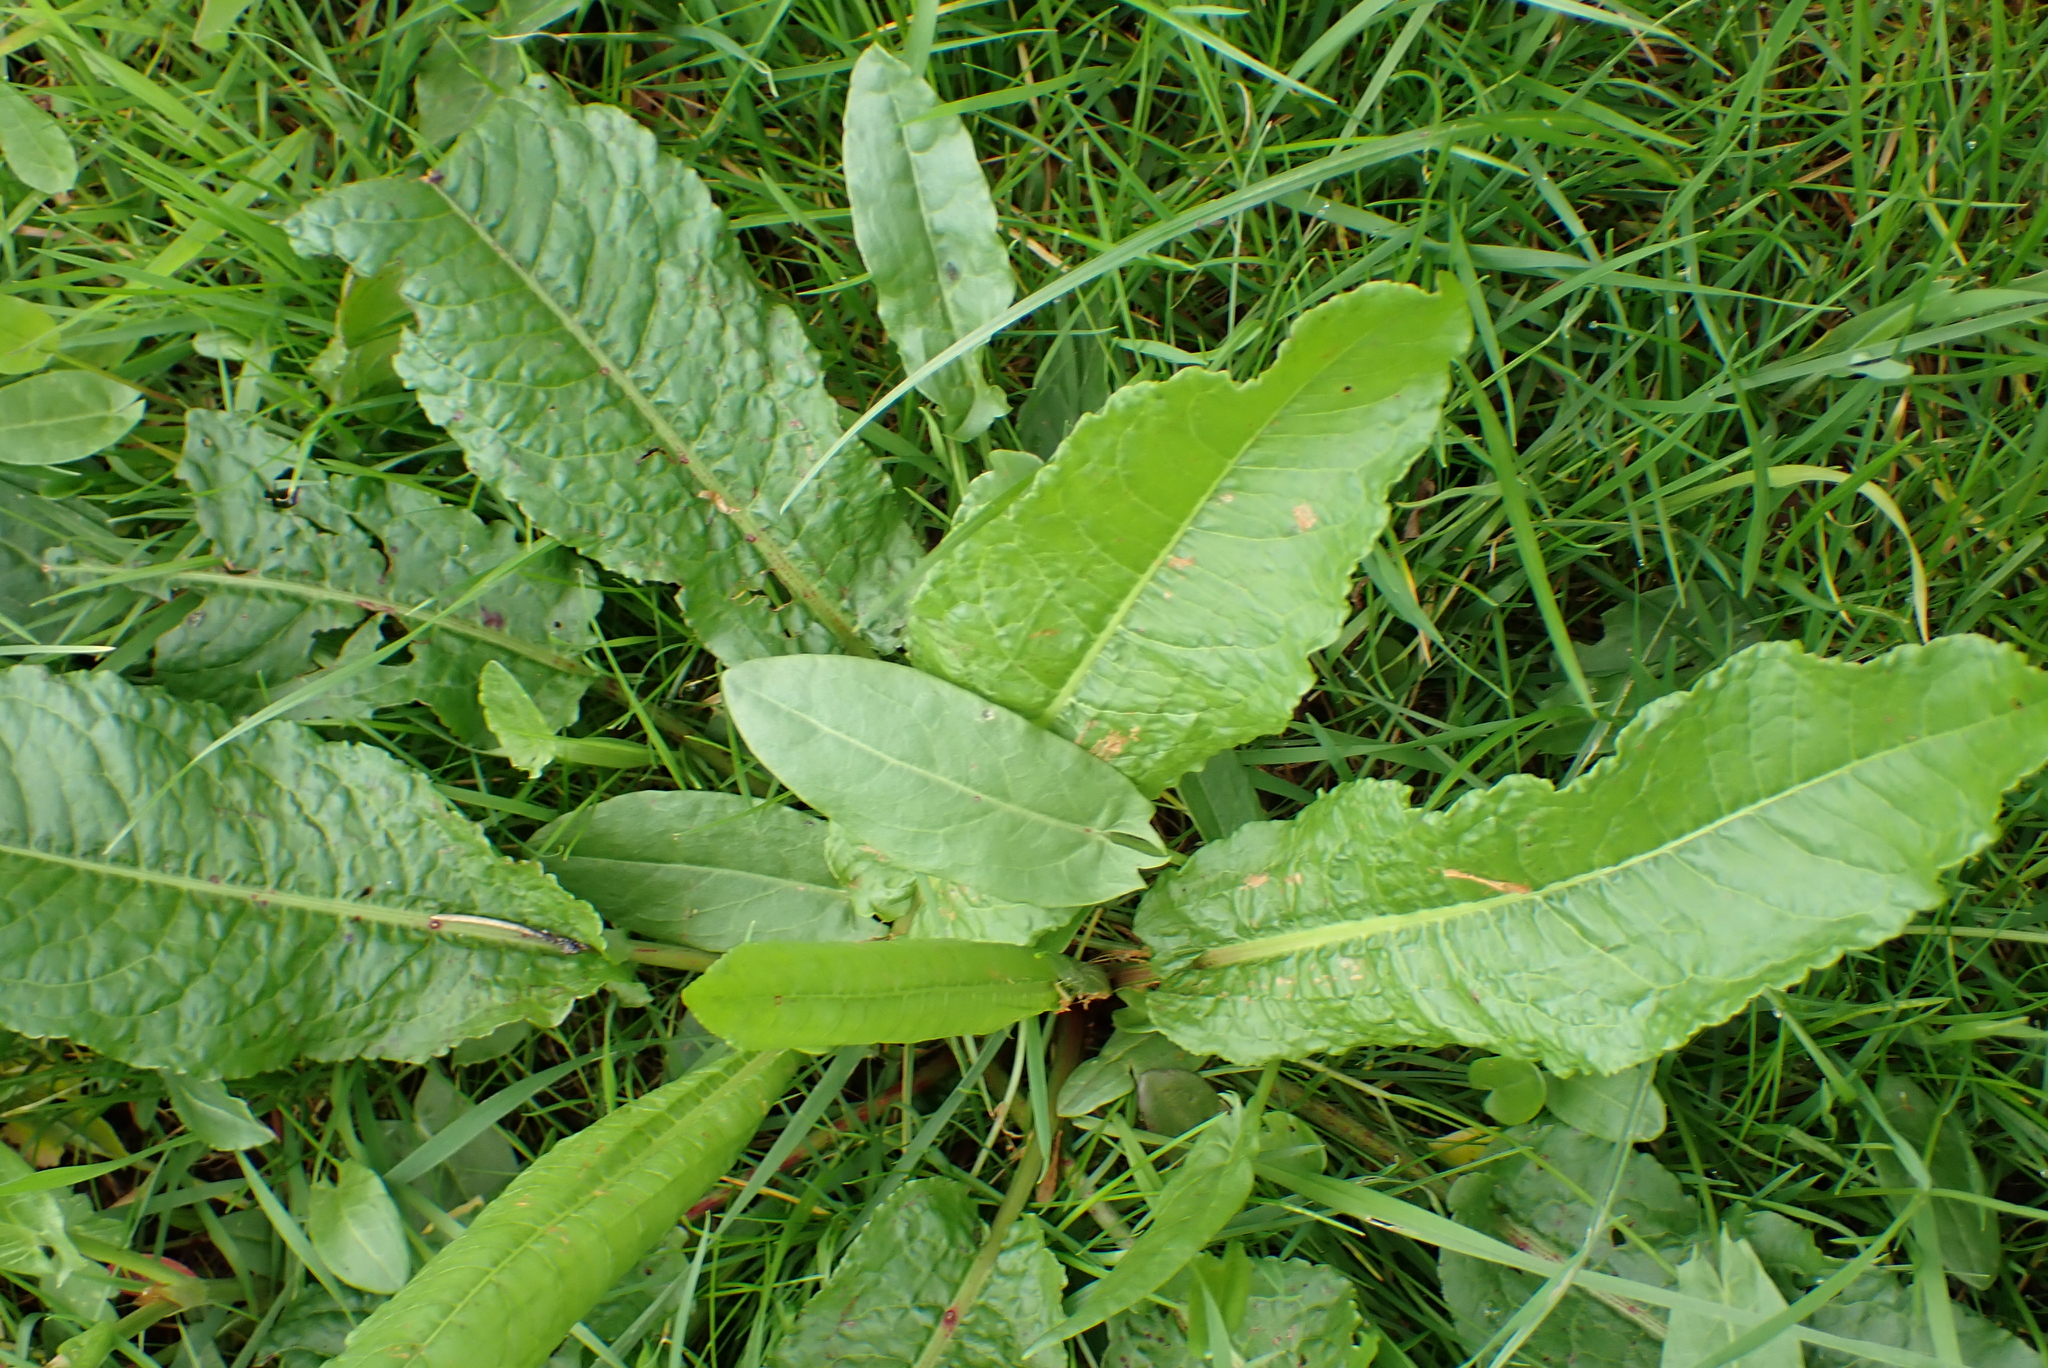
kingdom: Plantae
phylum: Tracheophyta
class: Magnoliopsida
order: Caryophyllales
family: Polygonaceae
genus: Rumex
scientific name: Rumex obtusifolius
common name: Bitter dock
